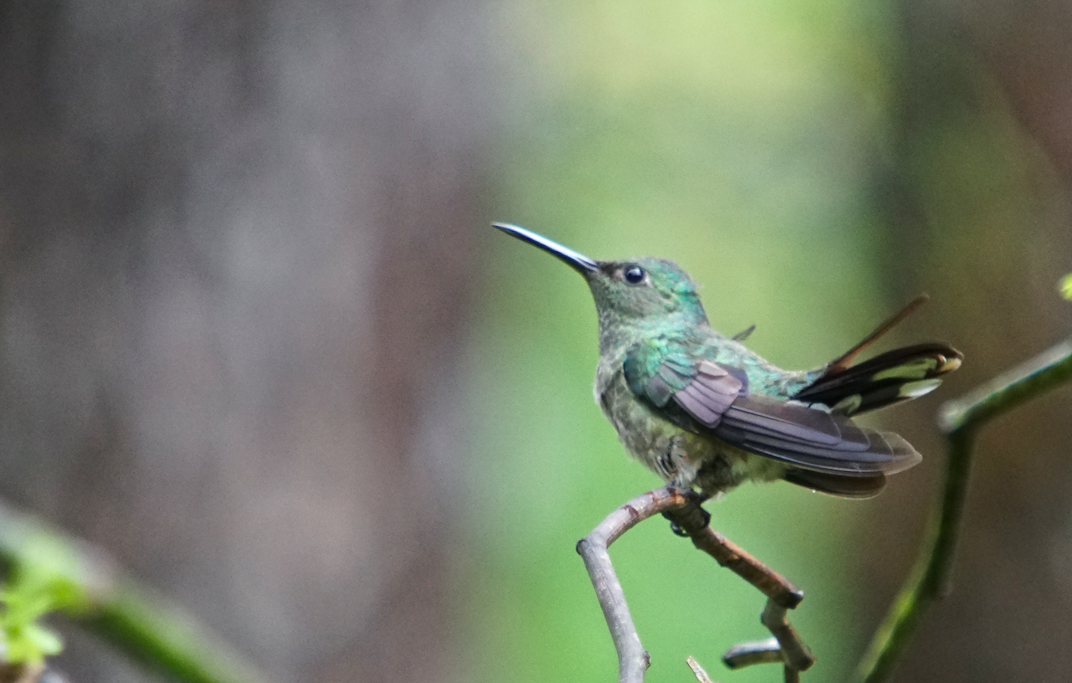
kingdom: Animalia
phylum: Chordata
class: Aves
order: Apodiformes
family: Trochilidae
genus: Phaeochroa
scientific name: Phaeochroa cuvierii
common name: Scaly-breasted hummingbird
